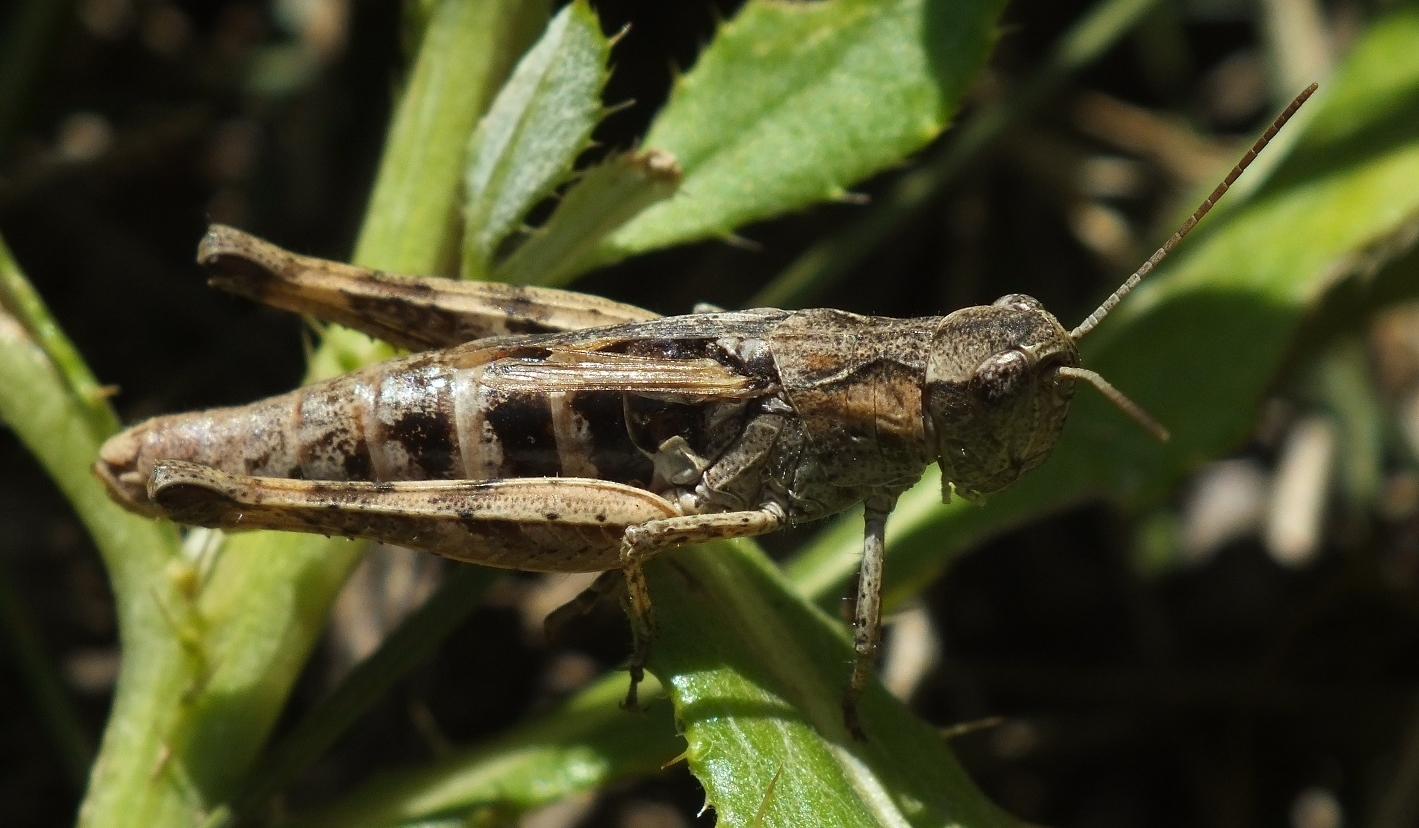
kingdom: Animalia
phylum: Arthropoda
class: Insecta
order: Orthoptera
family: Acrididae
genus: Chorthippus
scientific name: Chorthippus macrocerus
